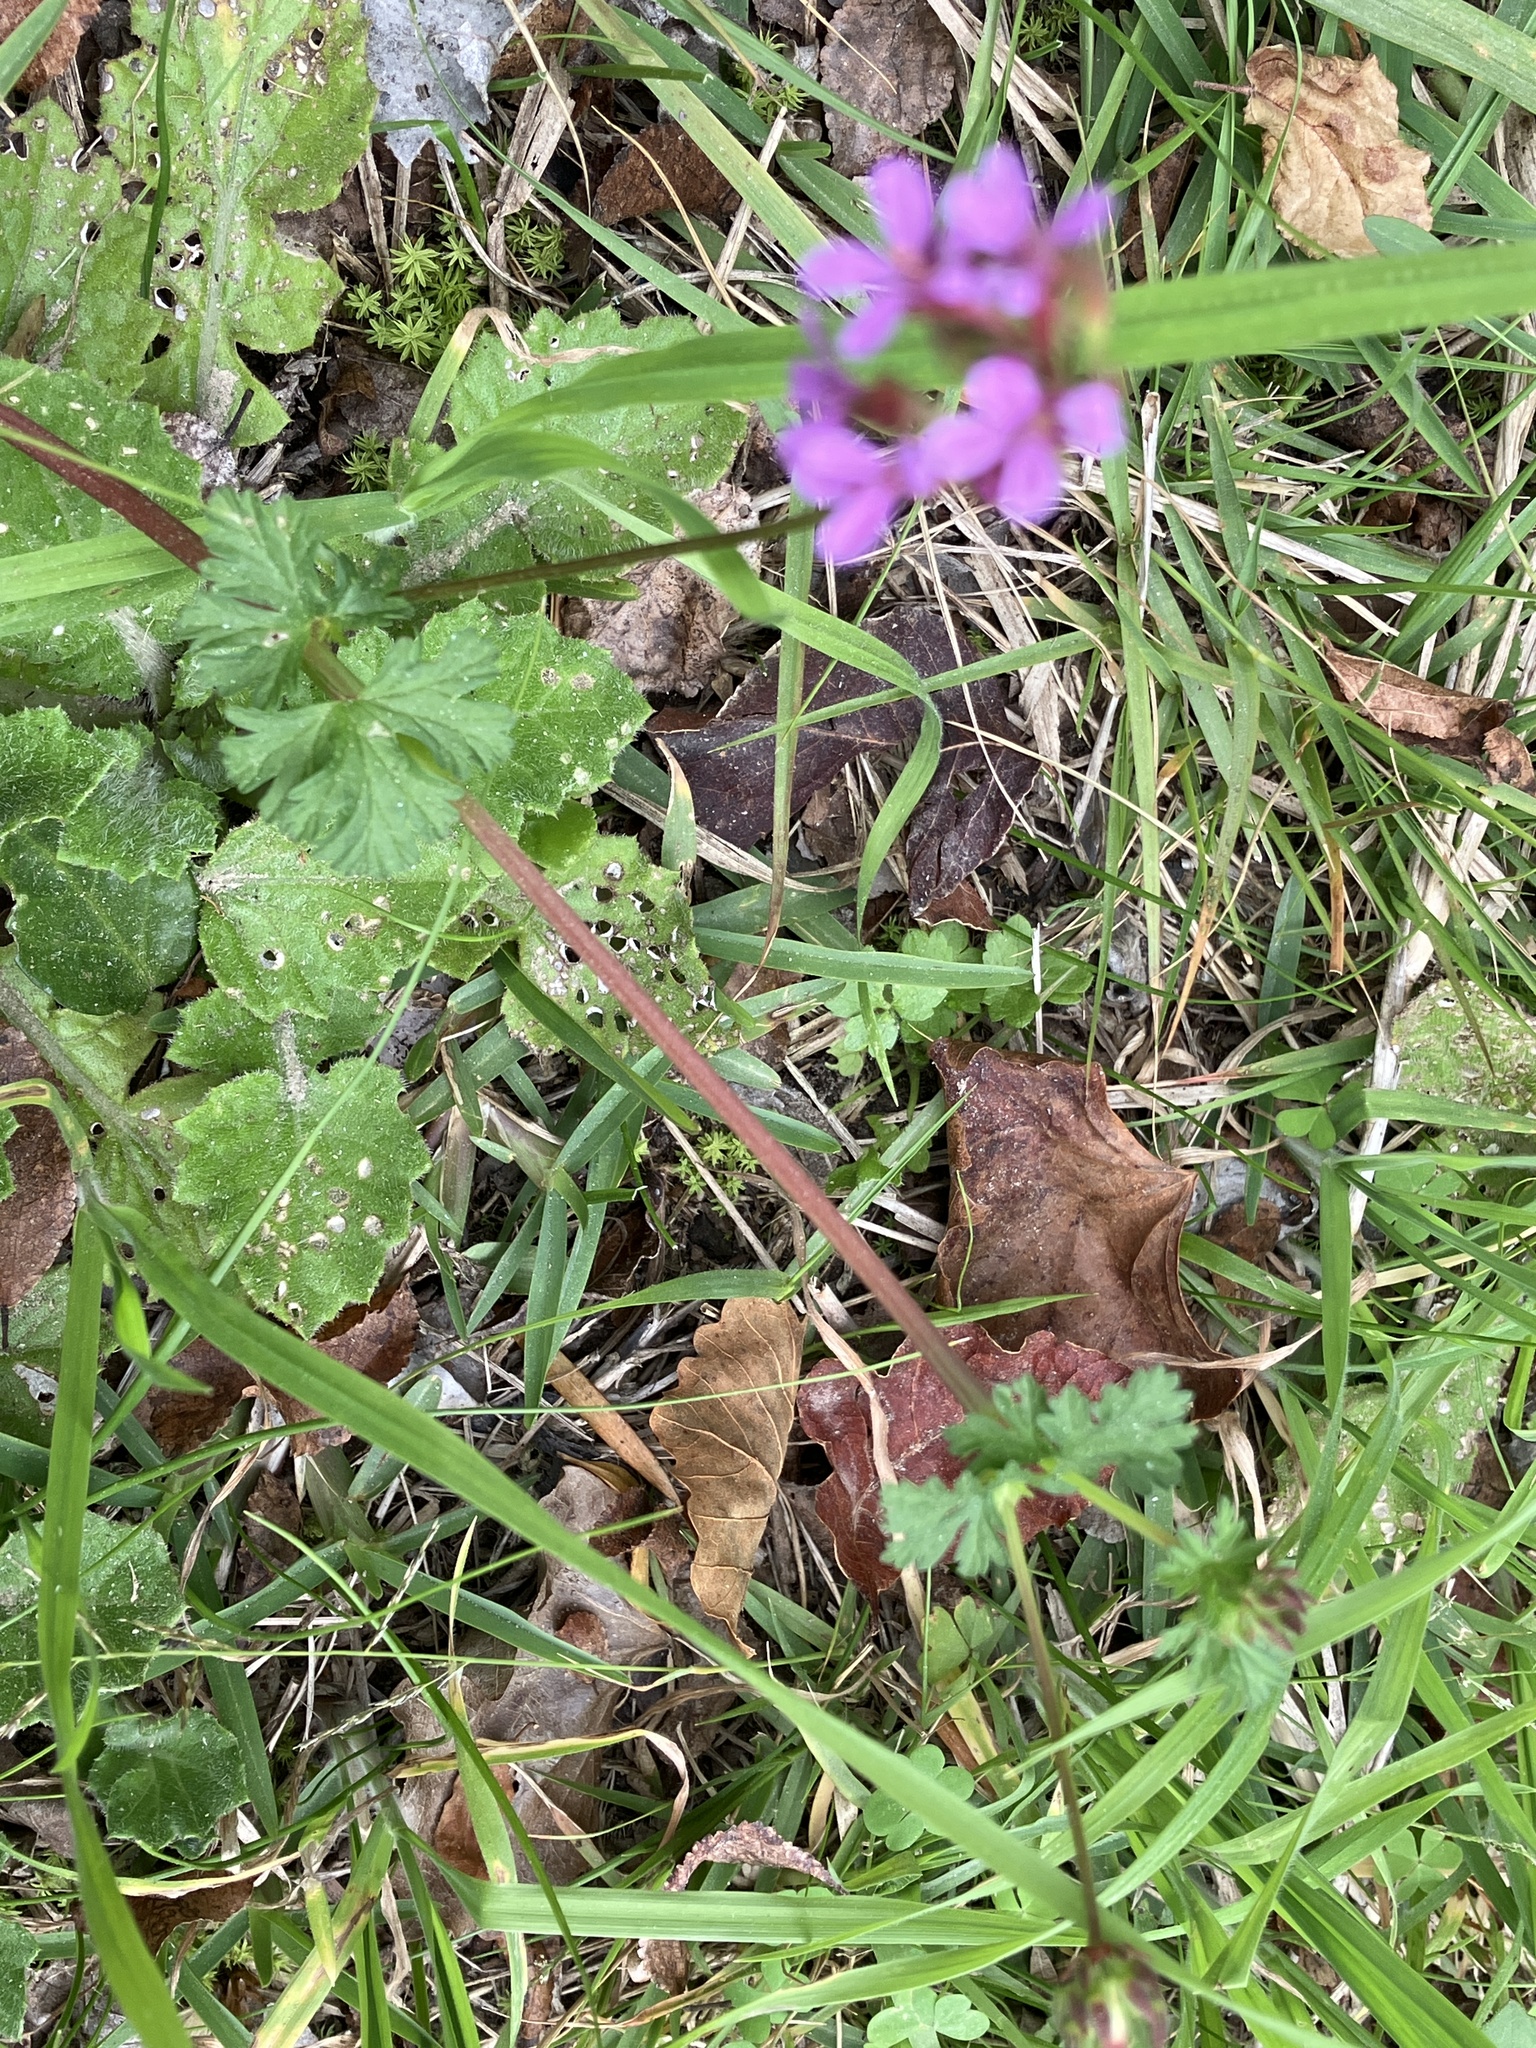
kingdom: Plantae
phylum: Tracheophyta
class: Magnoliopsida
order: Geraniales
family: Geraniaceae
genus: Pelargonium
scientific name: Pelargonium grossularioides
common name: Gooseberry geranium
